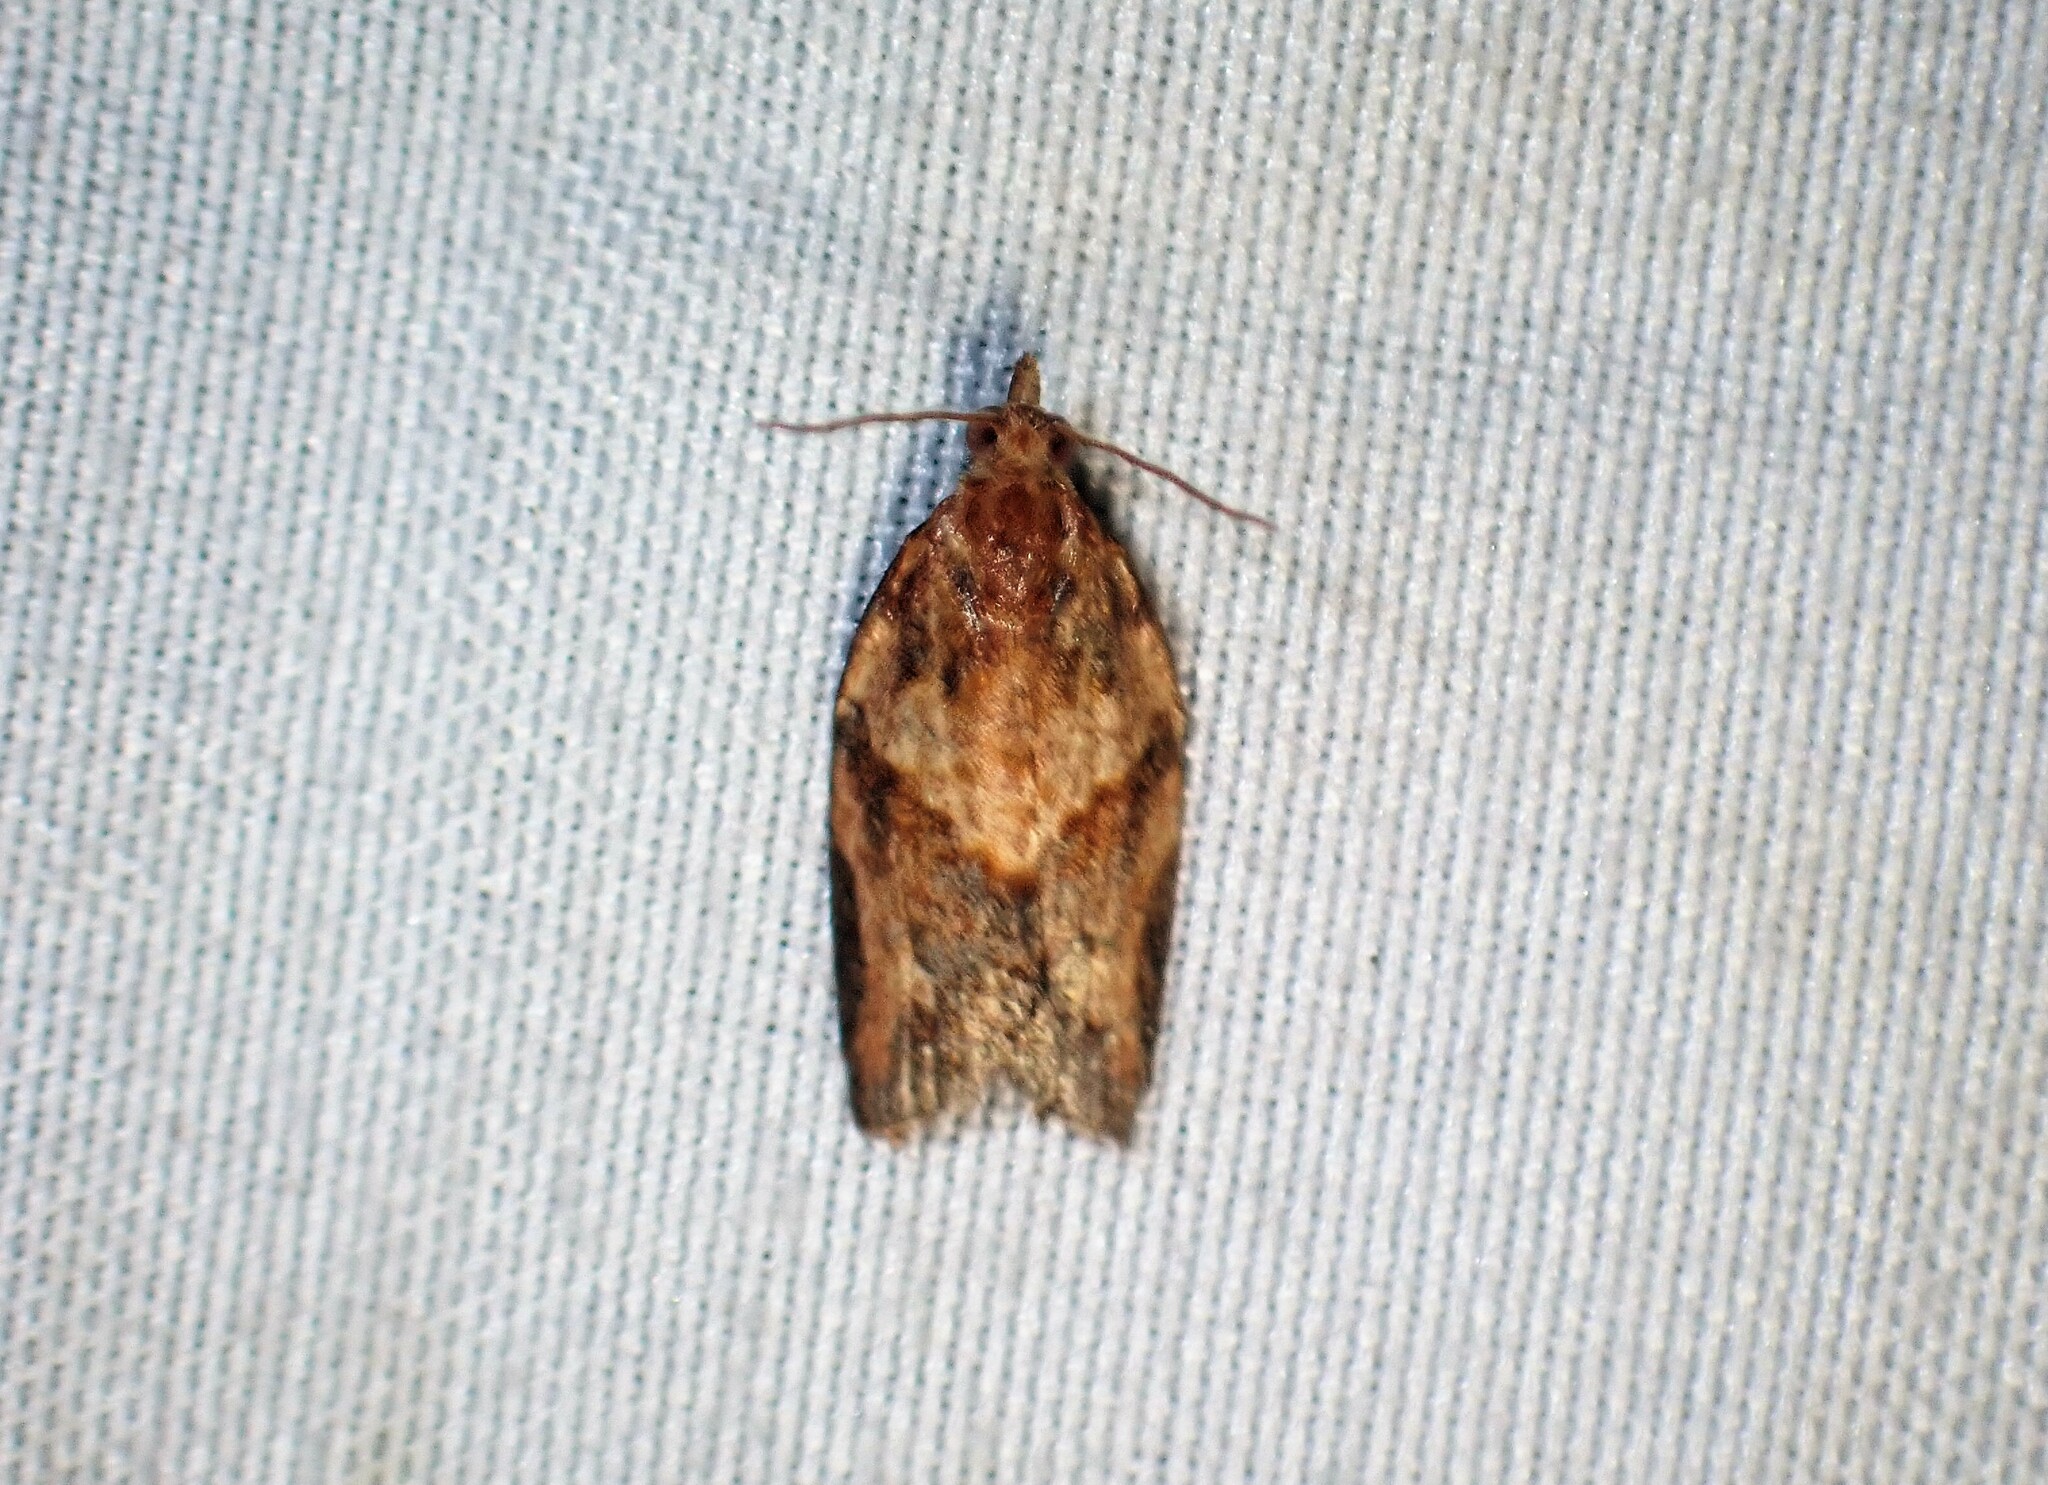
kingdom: Animalia
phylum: Arthropoda
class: Insecta
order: Lepidoptera
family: Tortricidae
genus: Epiphyas
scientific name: Epiphyas postvittana
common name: Light brown apple moth
